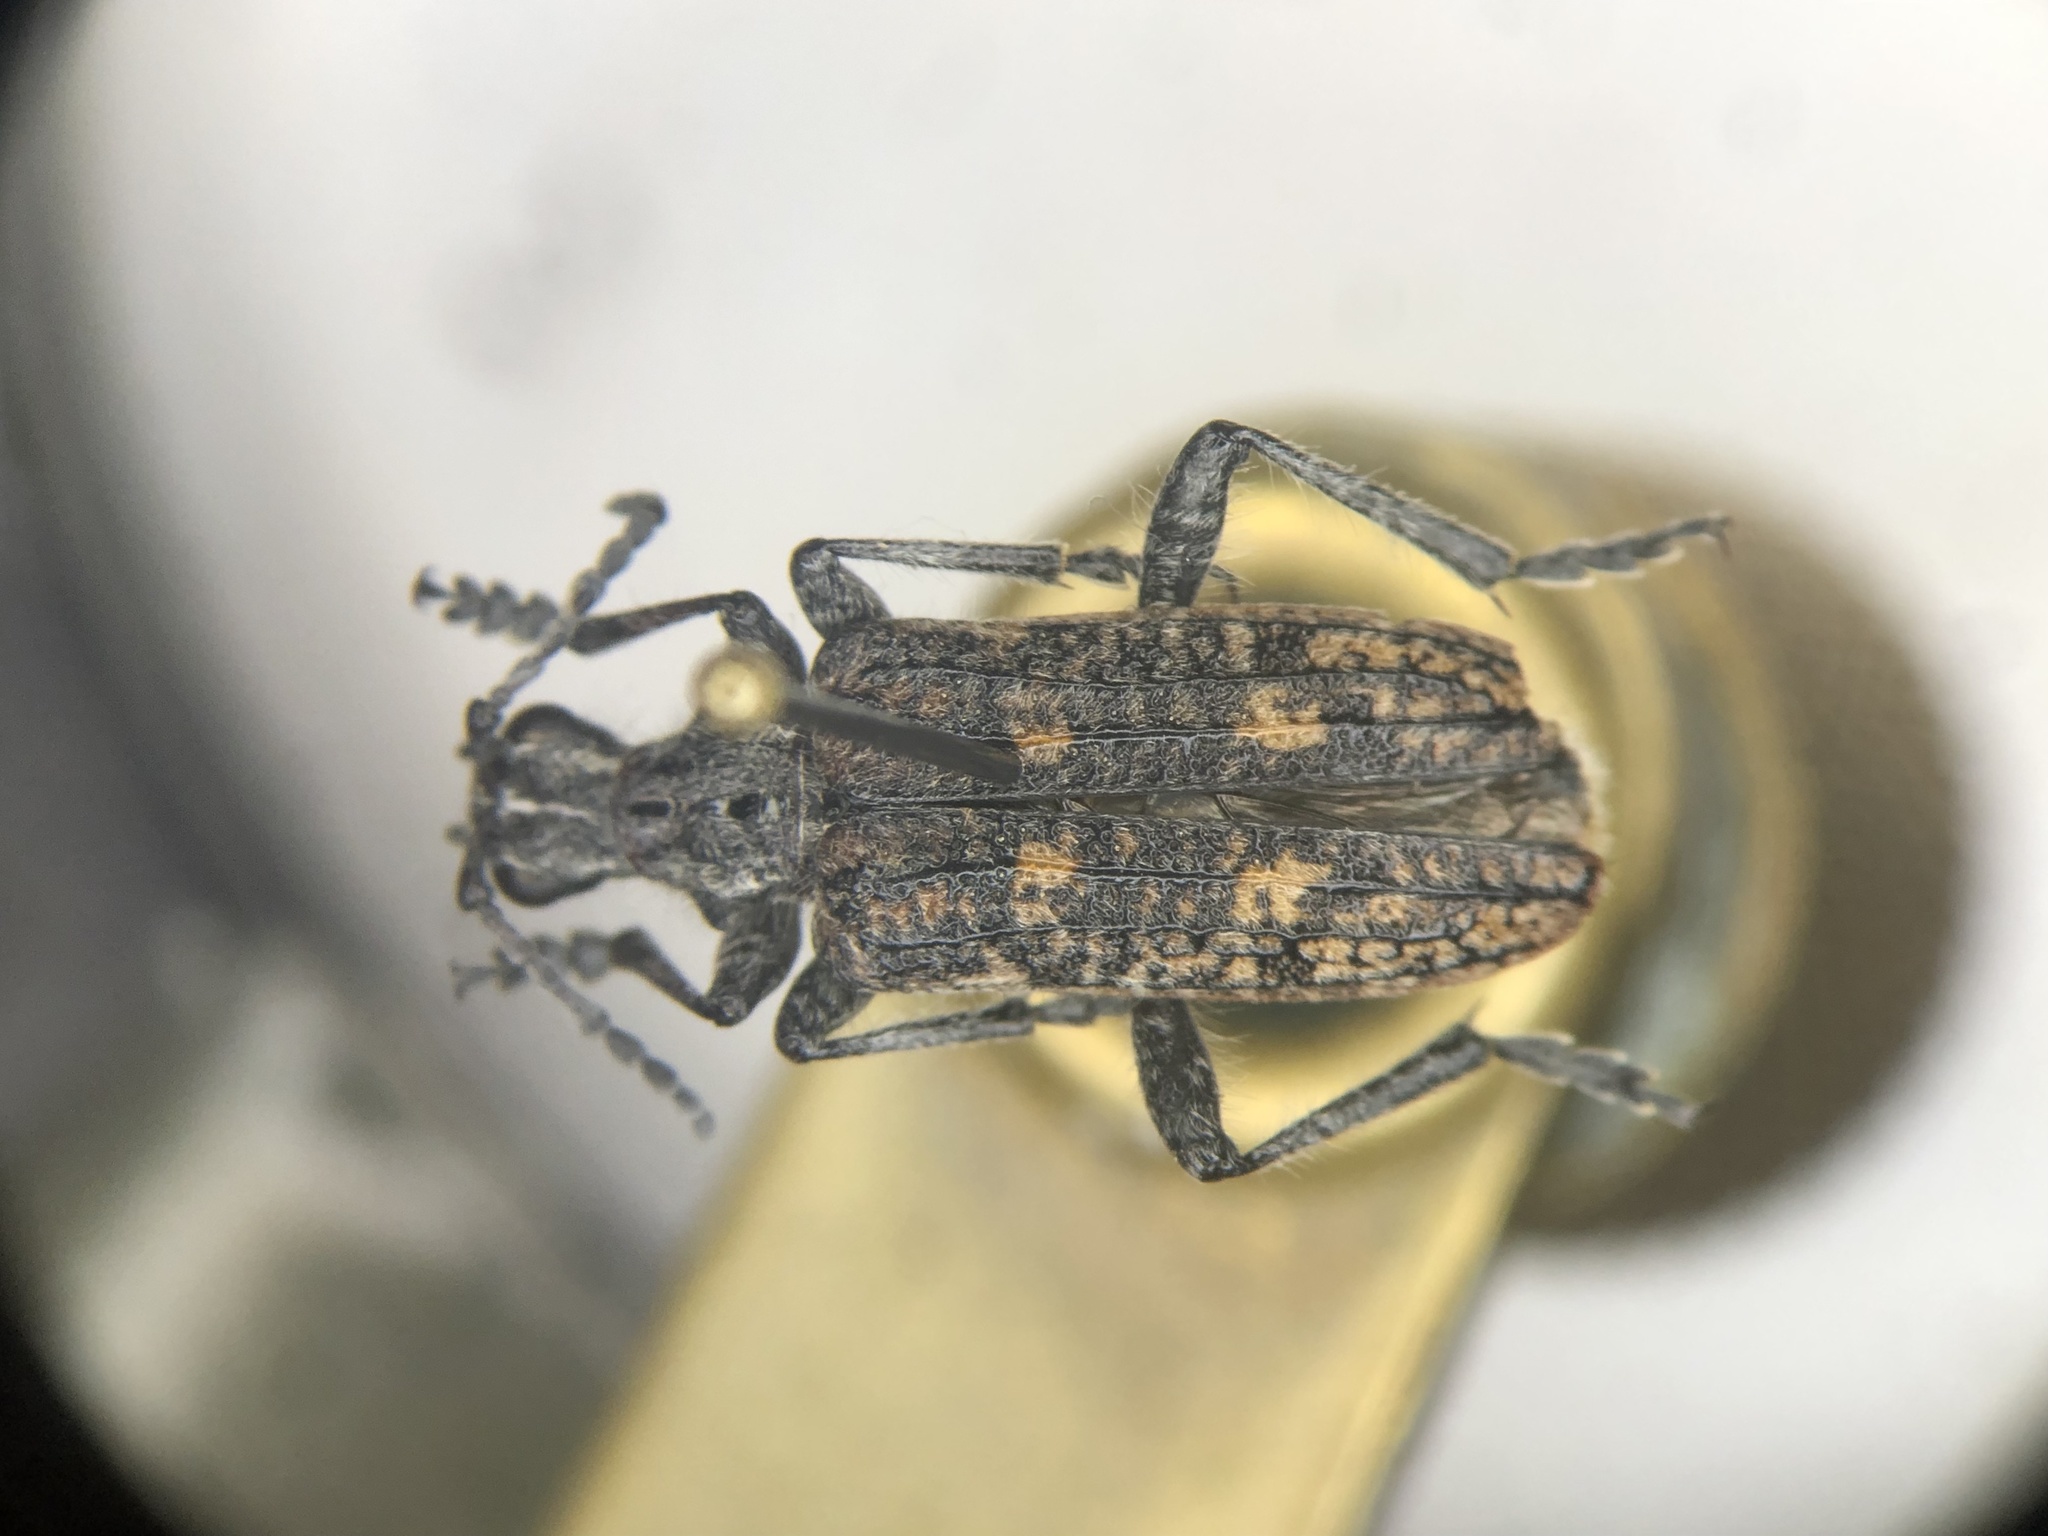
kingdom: Animalia
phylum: Arthropoda
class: Insecta
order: Coleoptera
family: Cerambycidae
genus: Rhagium
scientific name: Rhagium inquisitor
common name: Ribbed pine borer
